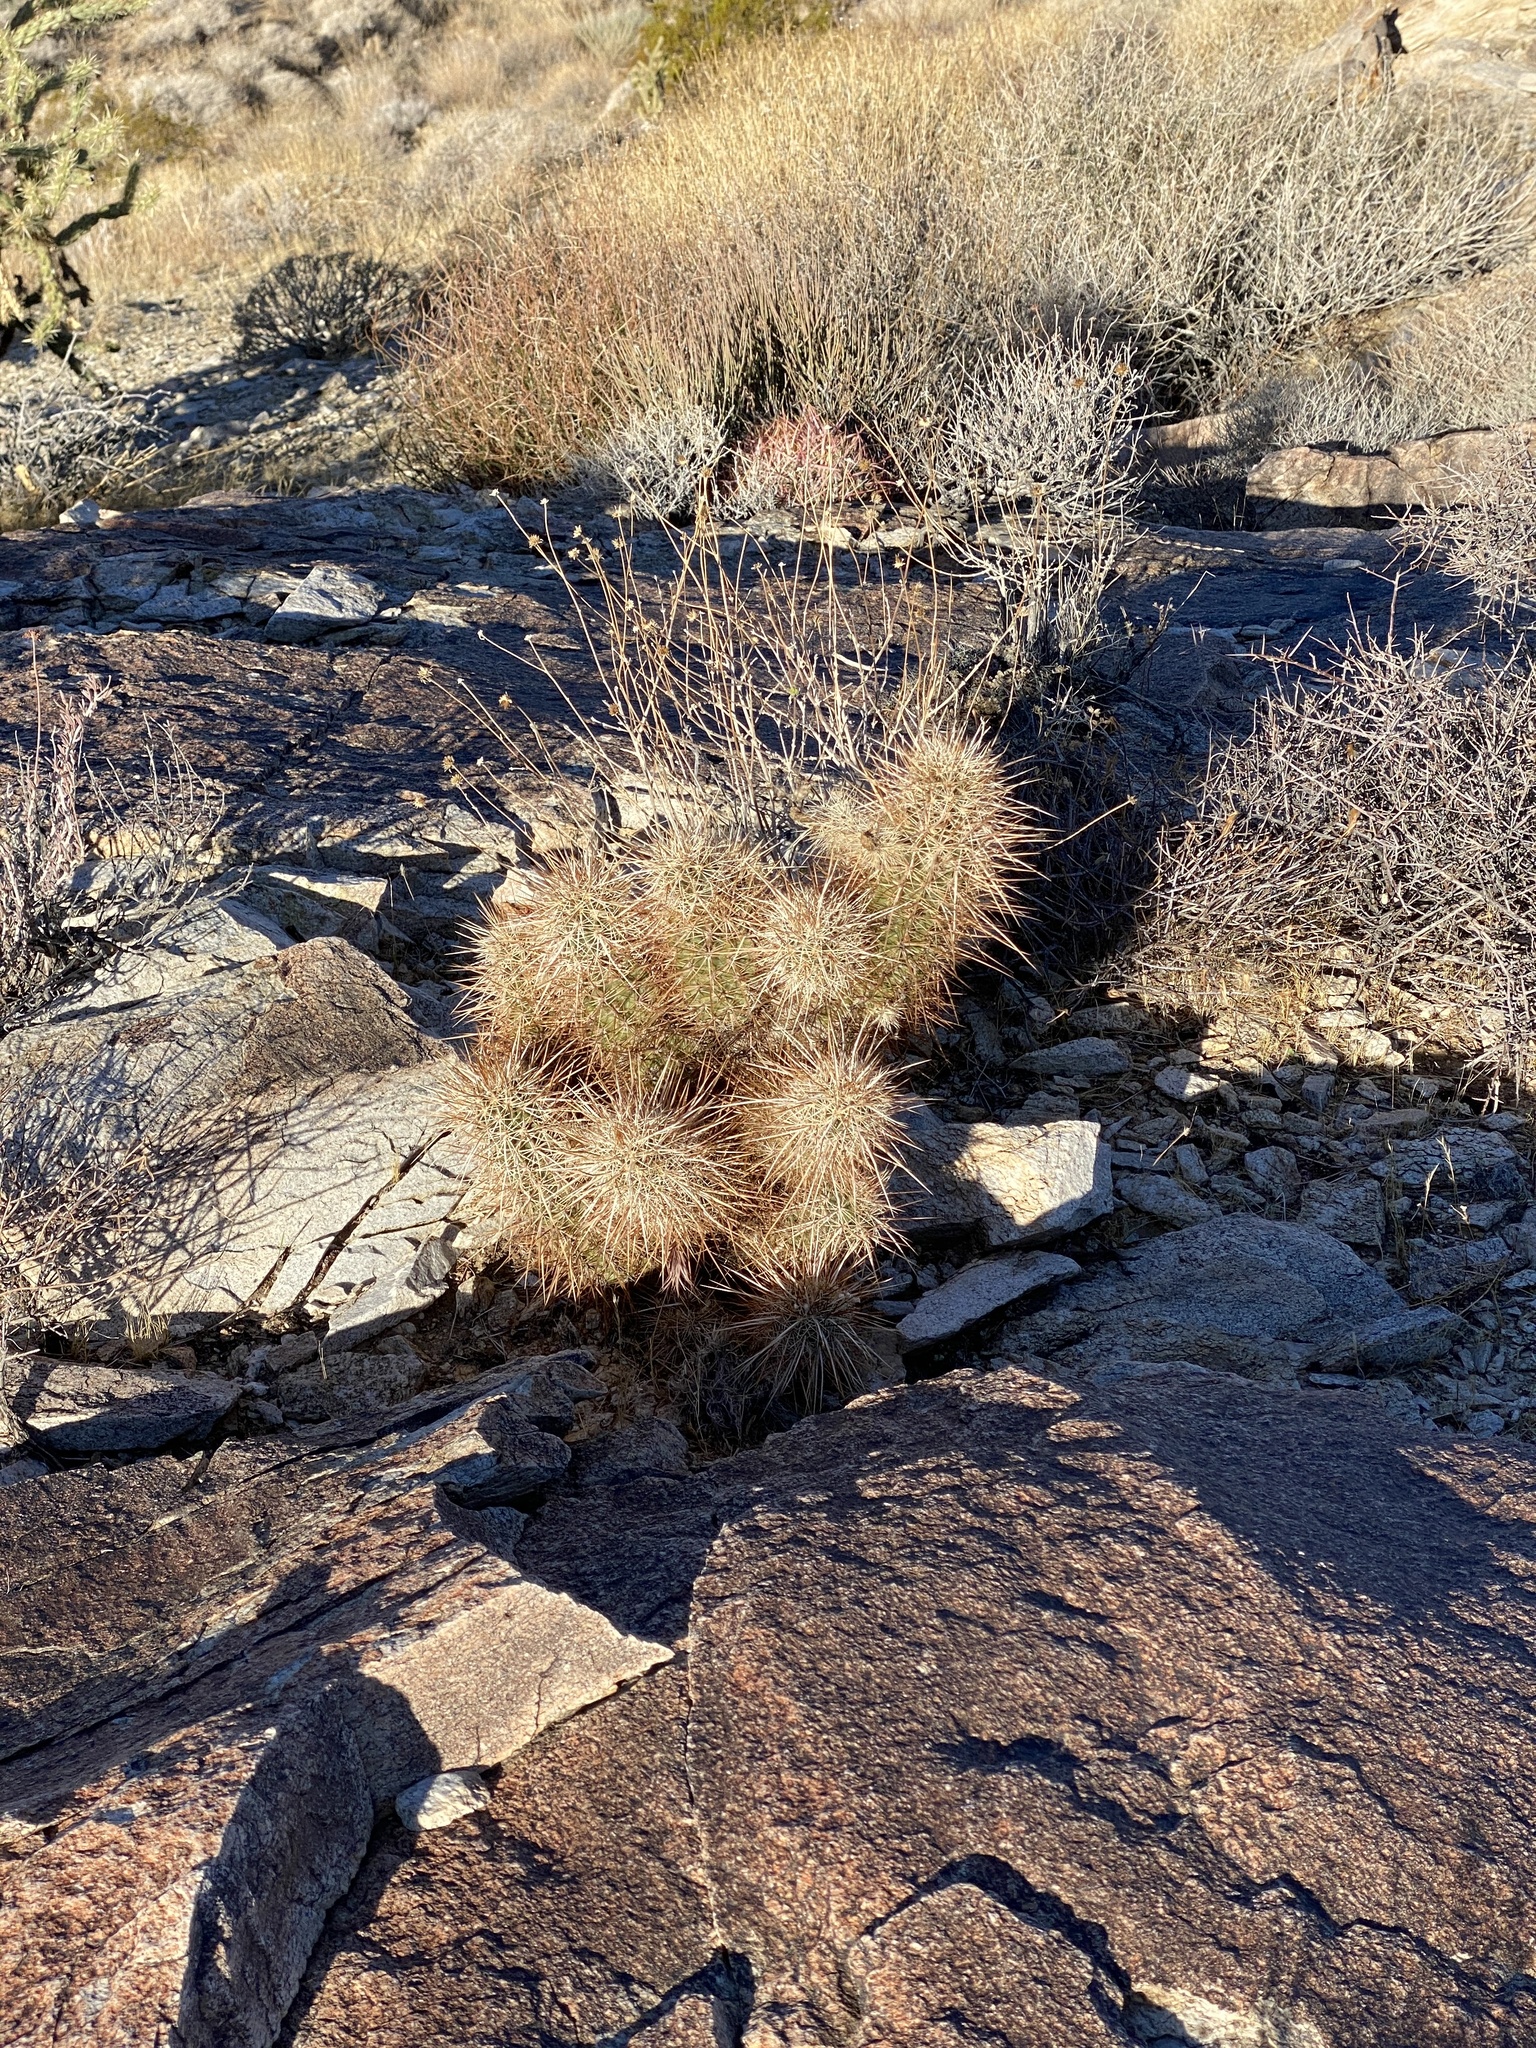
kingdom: Plantae
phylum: Tracheophyta
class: Magnoliopsida
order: Caryophyllales
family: Cactaceae
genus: Echinocereus
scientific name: Echinocereus engelmannii
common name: Engelmann's hedgehog cactus
